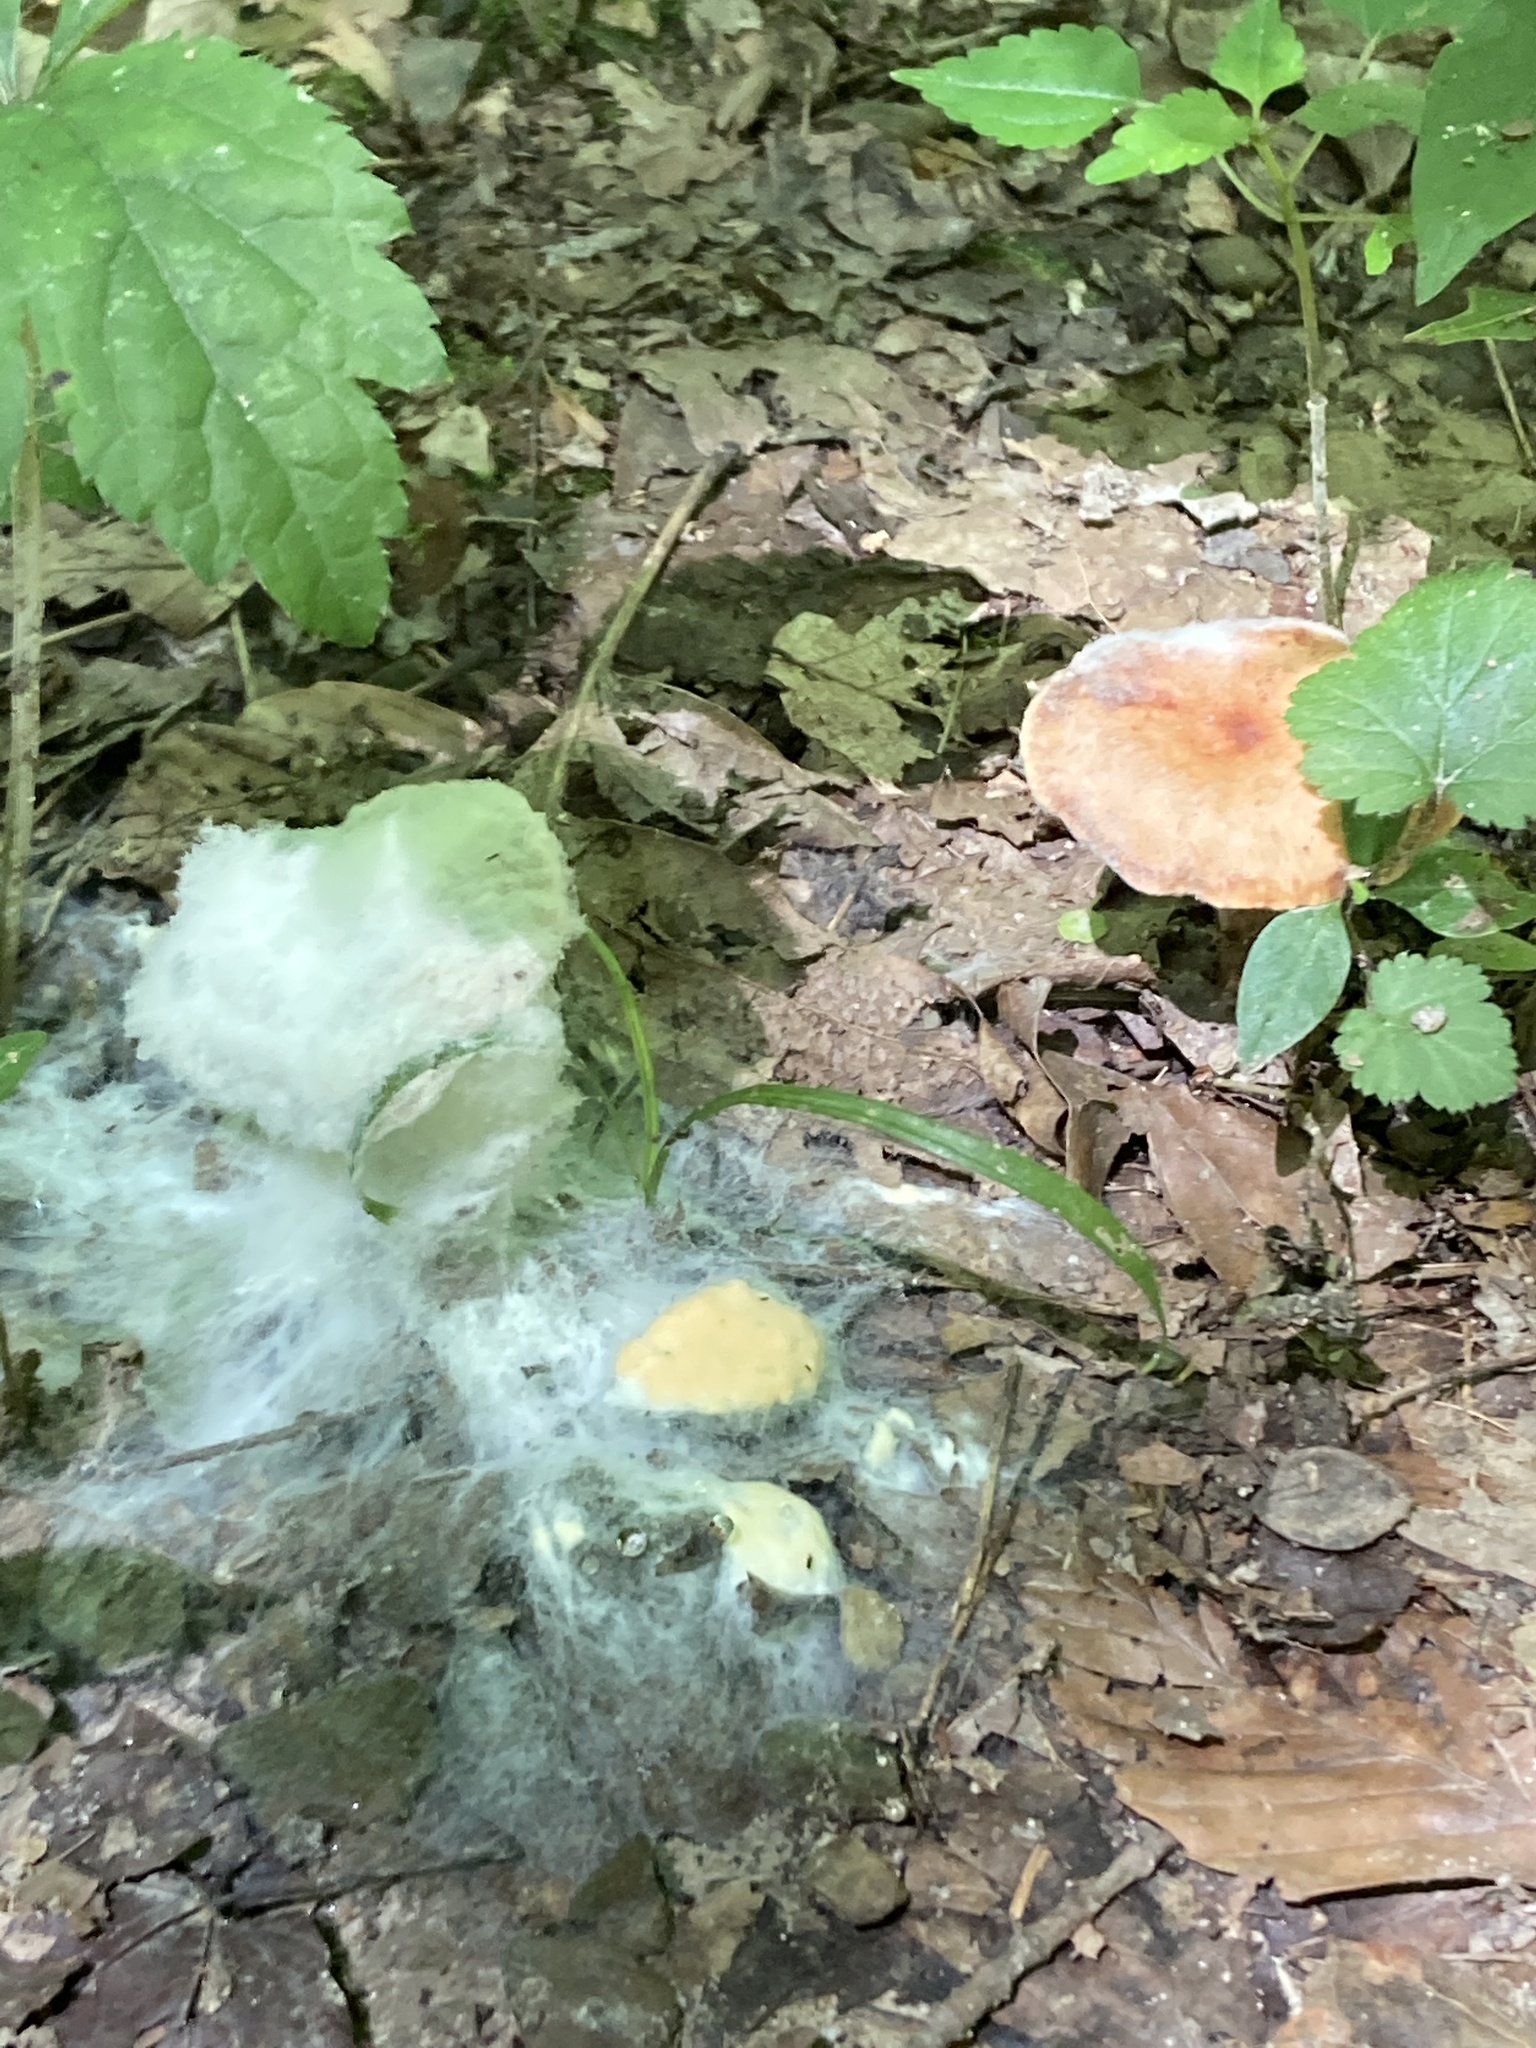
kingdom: Fungi
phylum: Mucoromycota
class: Mucoromycetes
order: Mucorales
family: Rhizopodaceae
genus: Syzygites
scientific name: Syzygites megalocarpus
